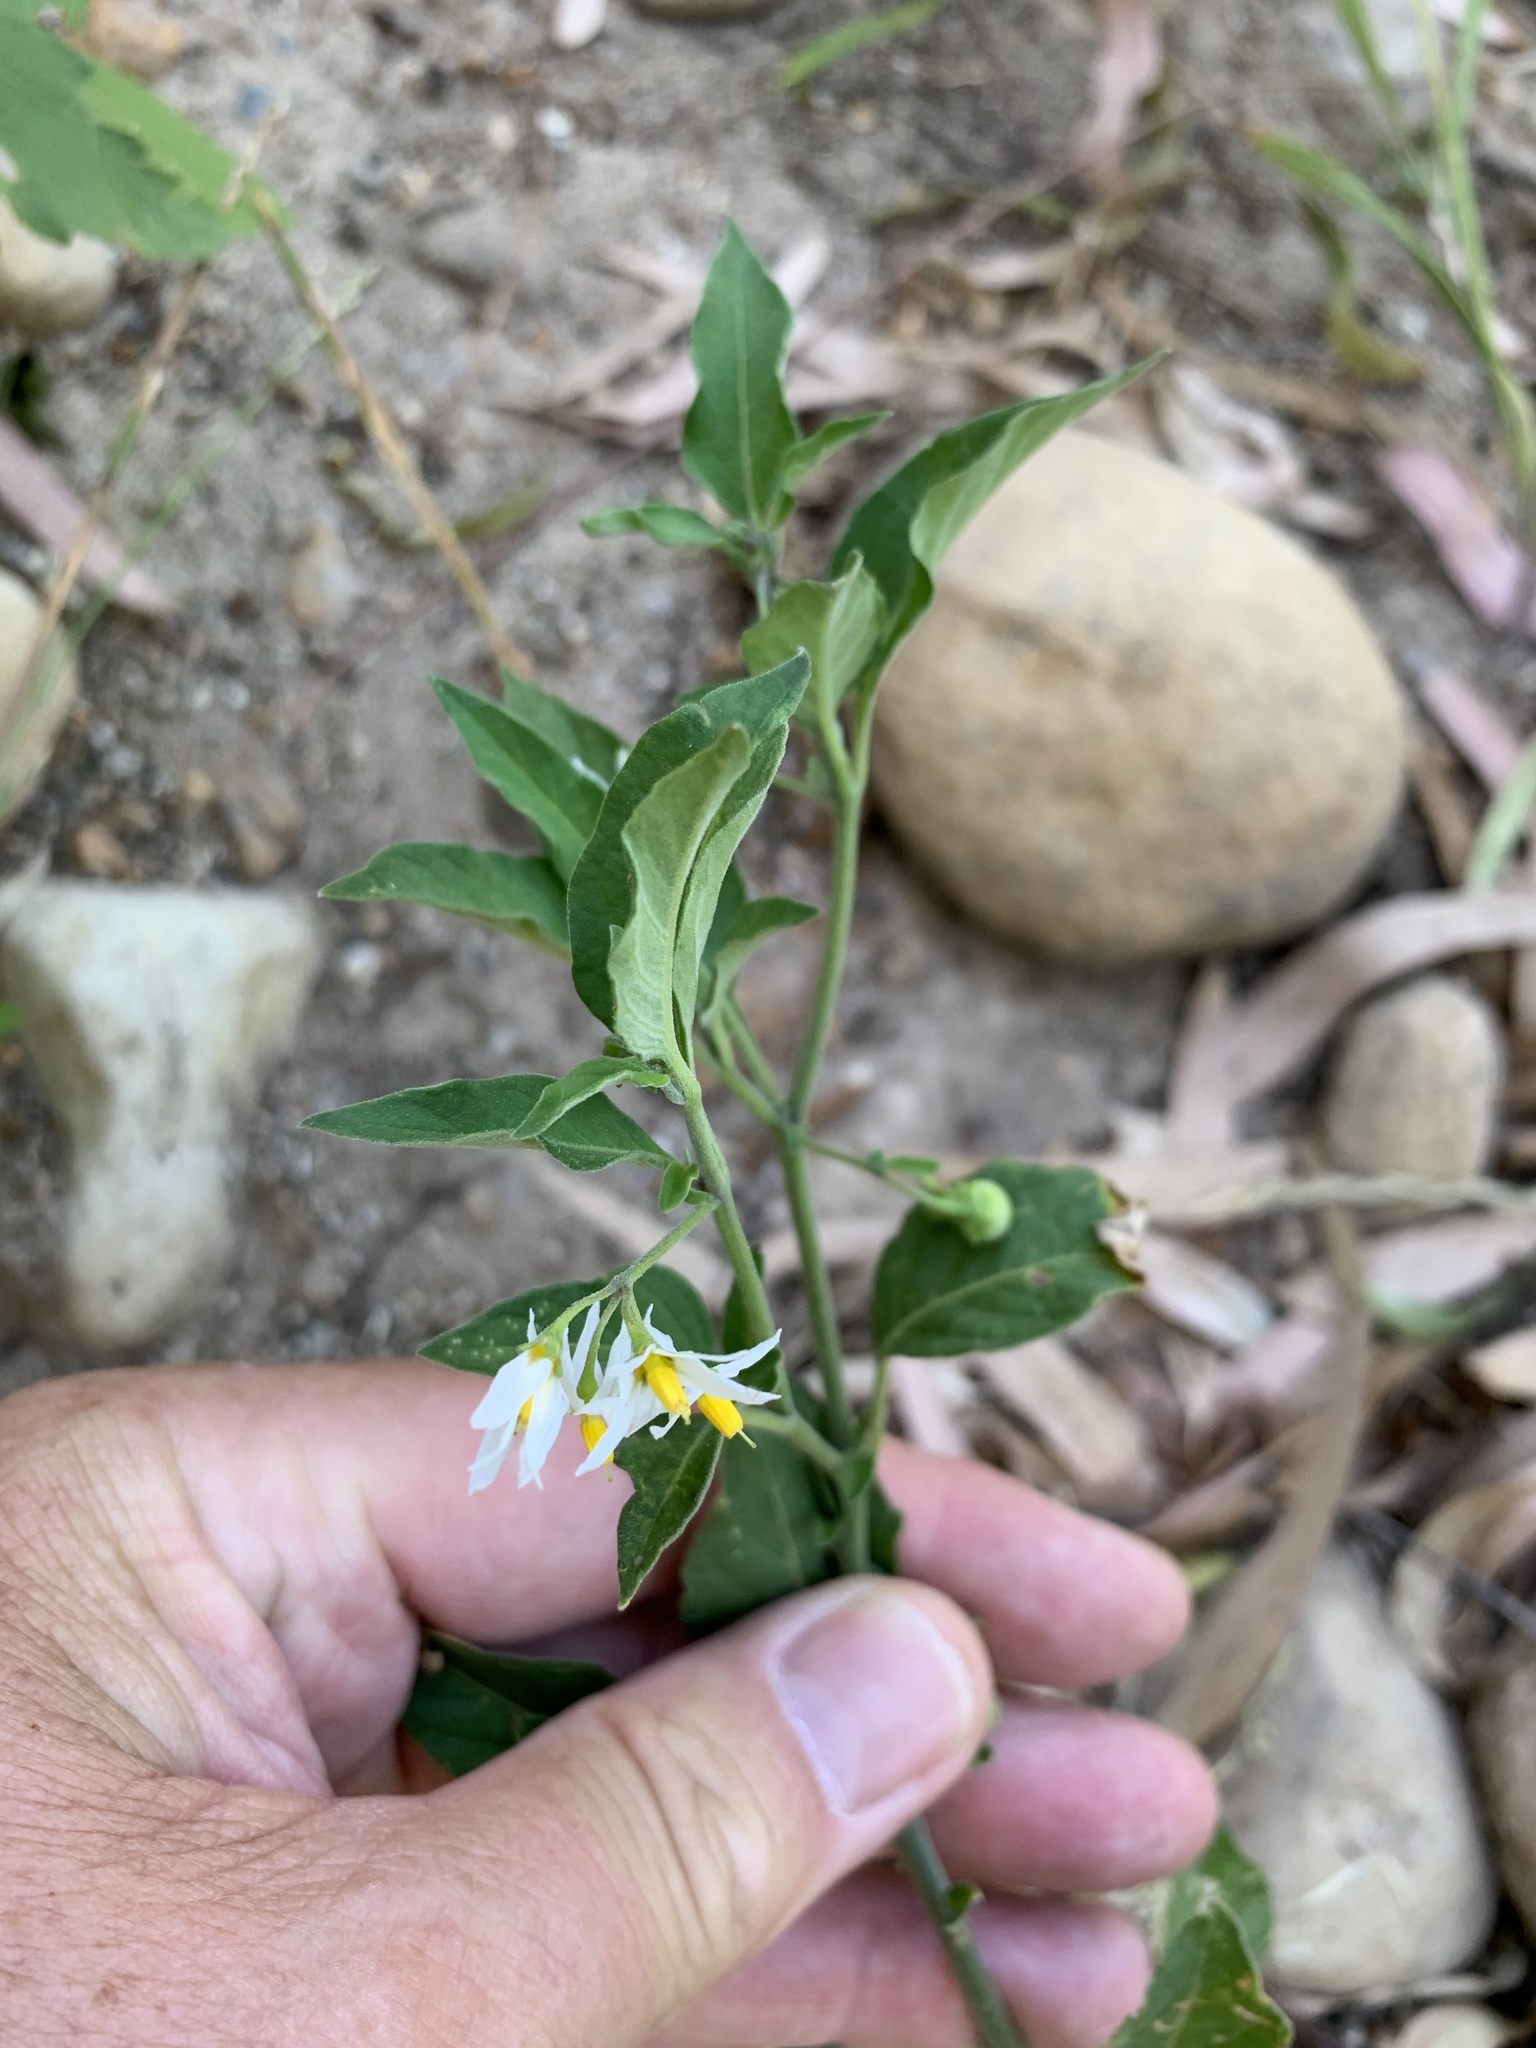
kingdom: Plantae
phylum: Tracheophyta
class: Magnoliopsida
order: Solanales
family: Solanaceae
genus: Solanum
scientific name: Solanum chenopodioides
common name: Tall nightshade
